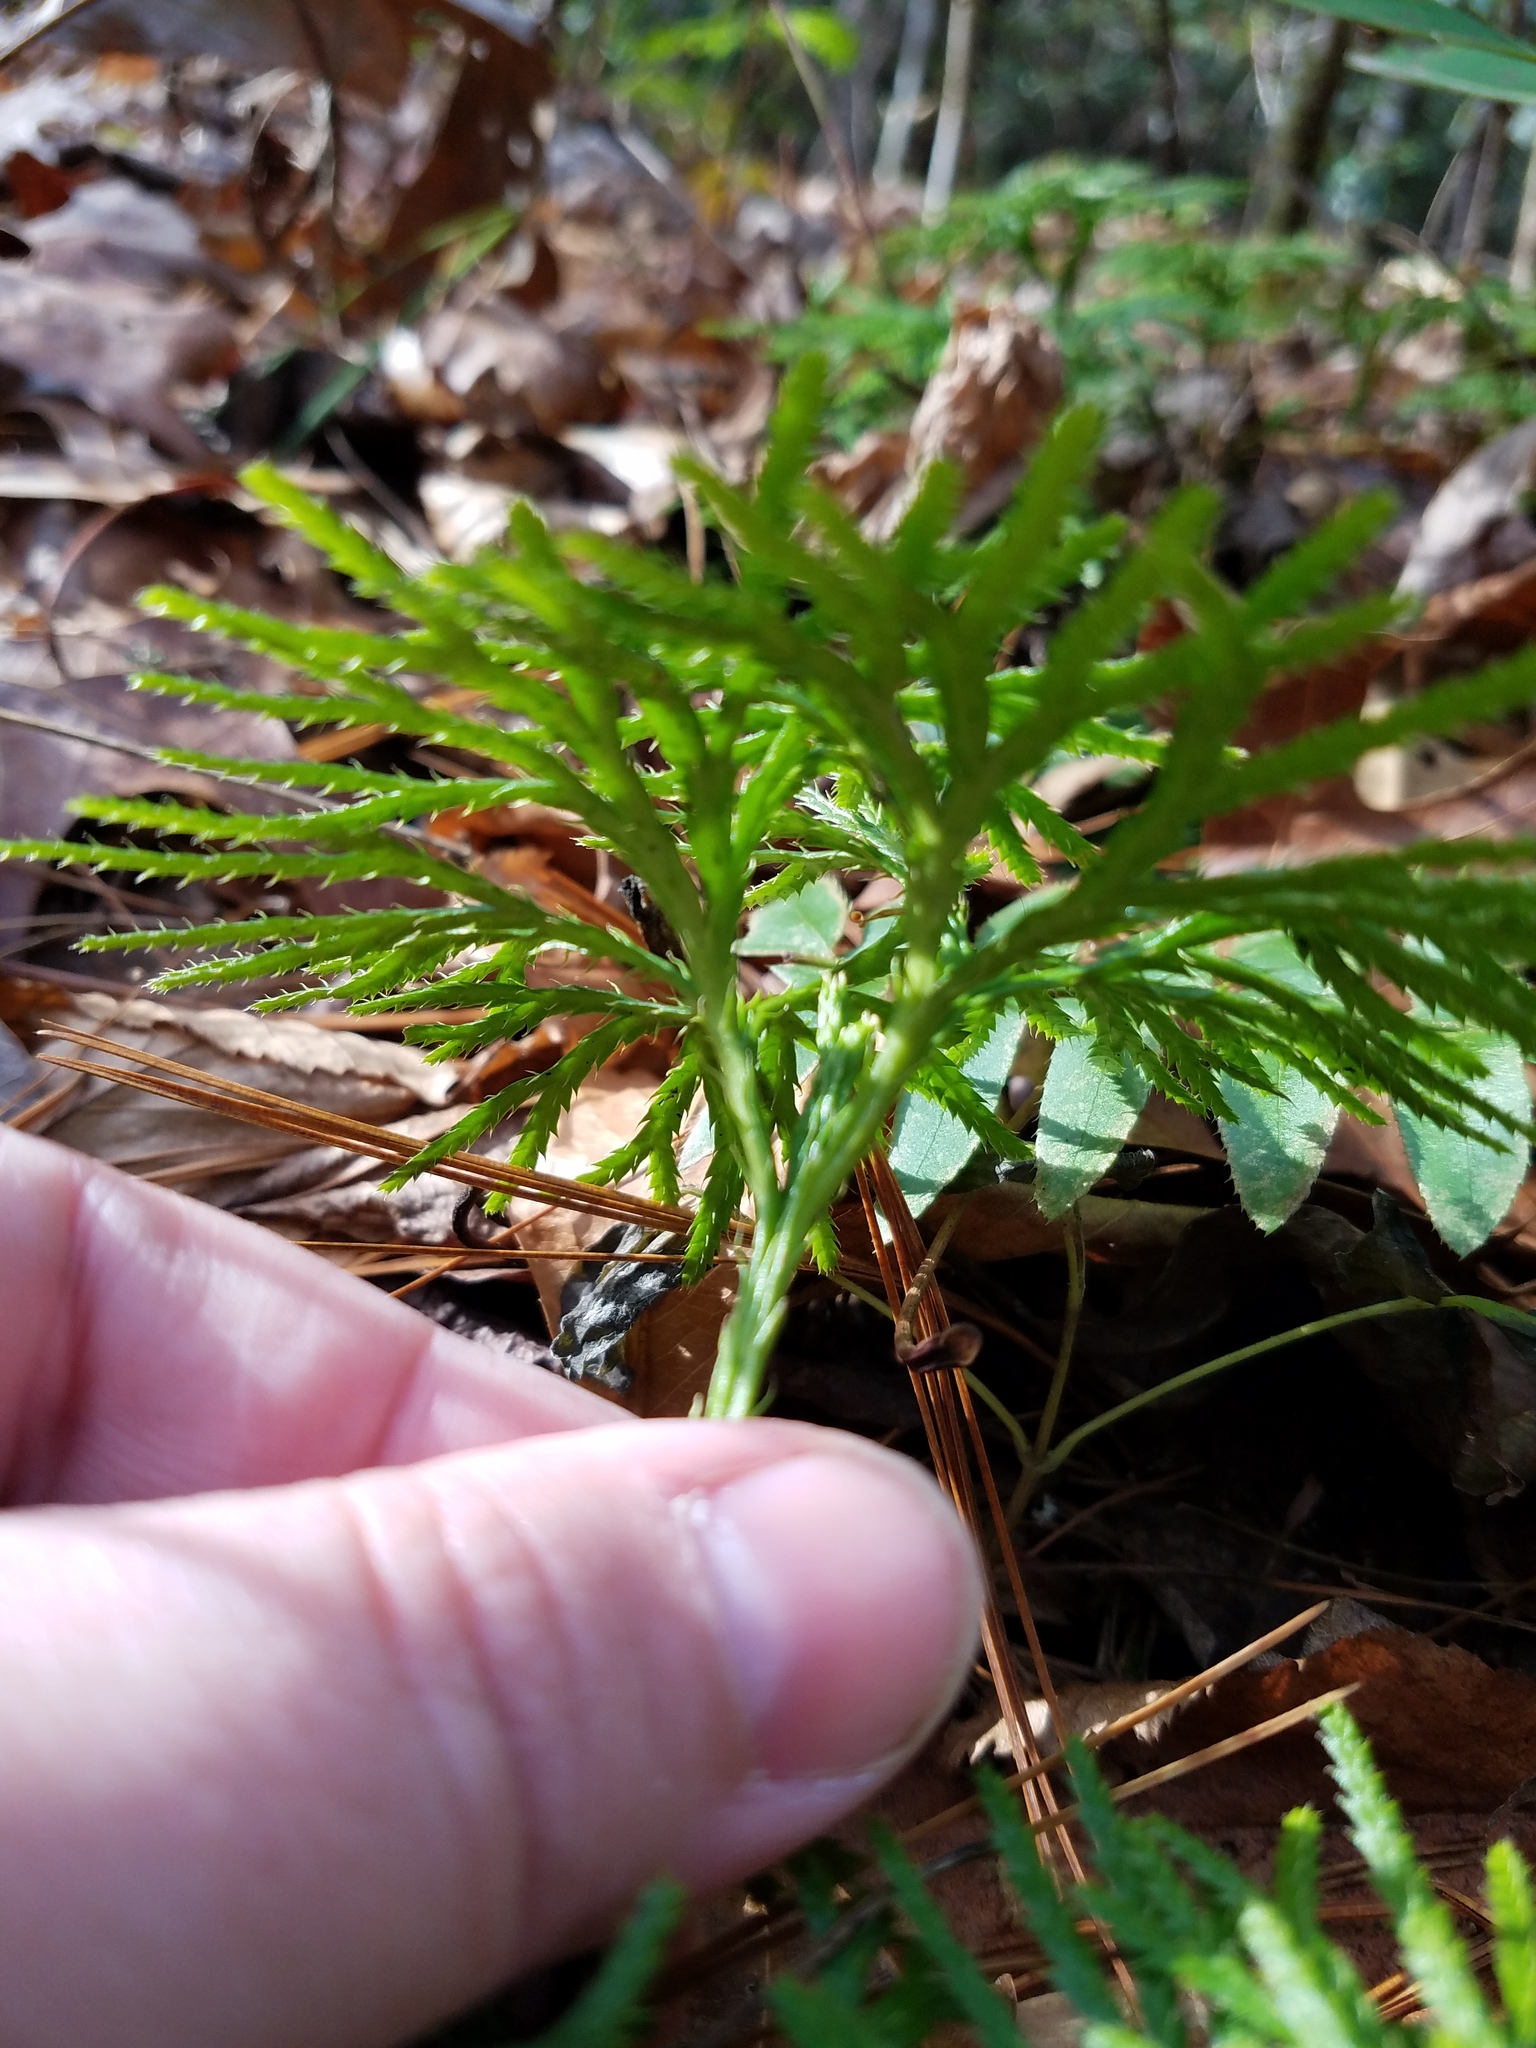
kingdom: Plantae
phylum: Tracheophyta
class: Lycopodiopsida
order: Lycopodiales
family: Lycopodiaceae
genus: Diphasiastrum
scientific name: Diphasiastrum digitatum
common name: Southern running-pine
